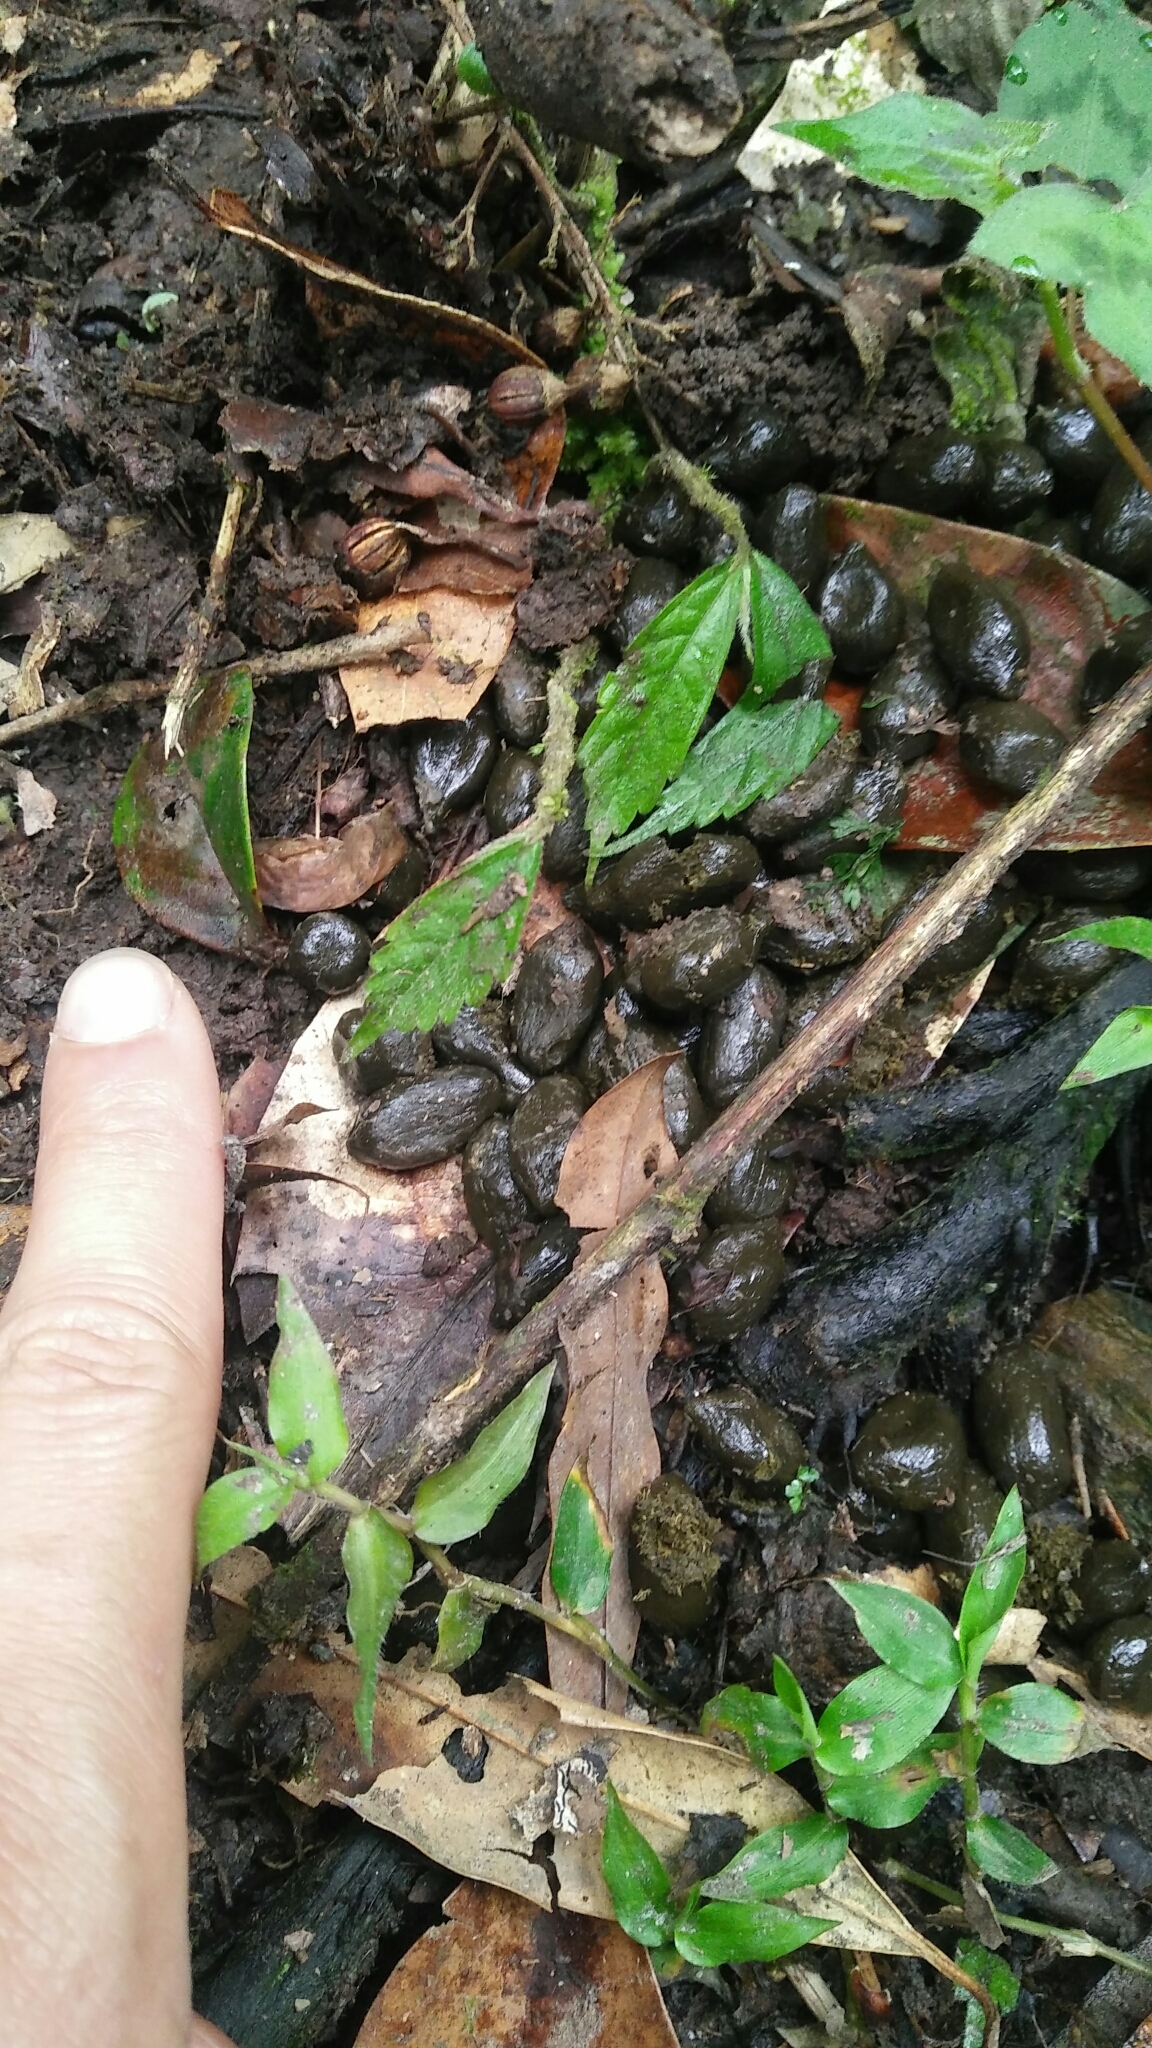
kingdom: Animalia
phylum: Chordata
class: Mammalia
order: Artiodactyla
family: Cervidae
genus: Rusa
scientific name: Rusa unicolor
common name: Sambar
